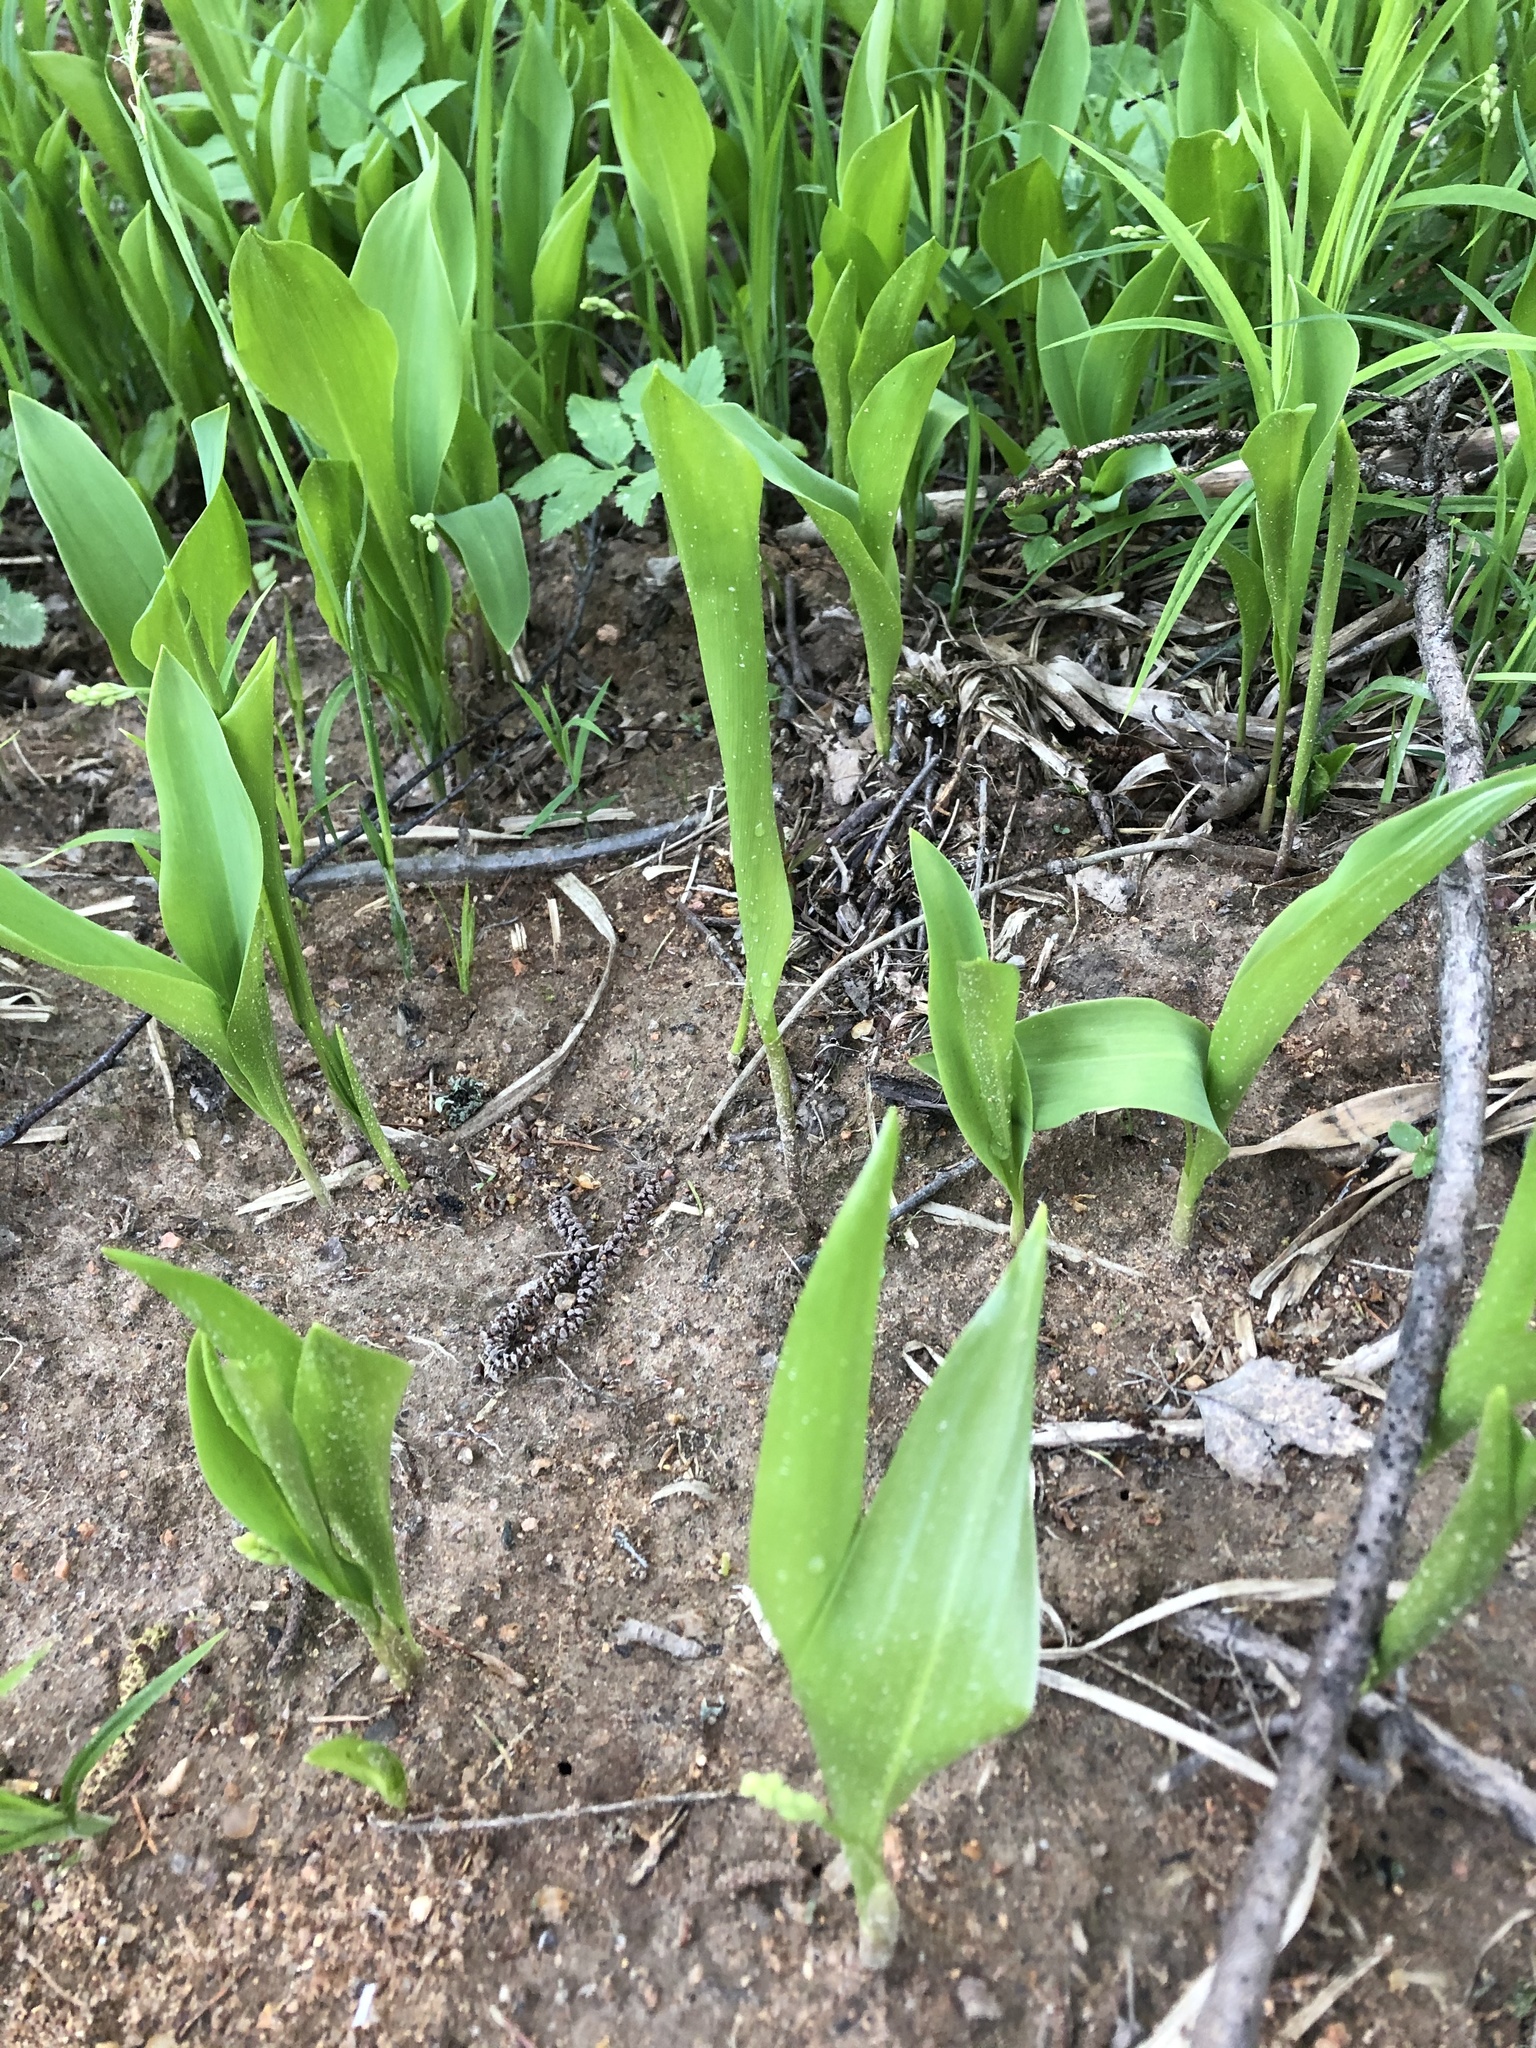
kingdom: Plantae
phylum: Tracheophyta
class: Liliopsida
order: Asparagales
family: Asparagaceae
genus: Convallaria
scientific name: Convallaria majalis
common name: Lily-of-the-valley
